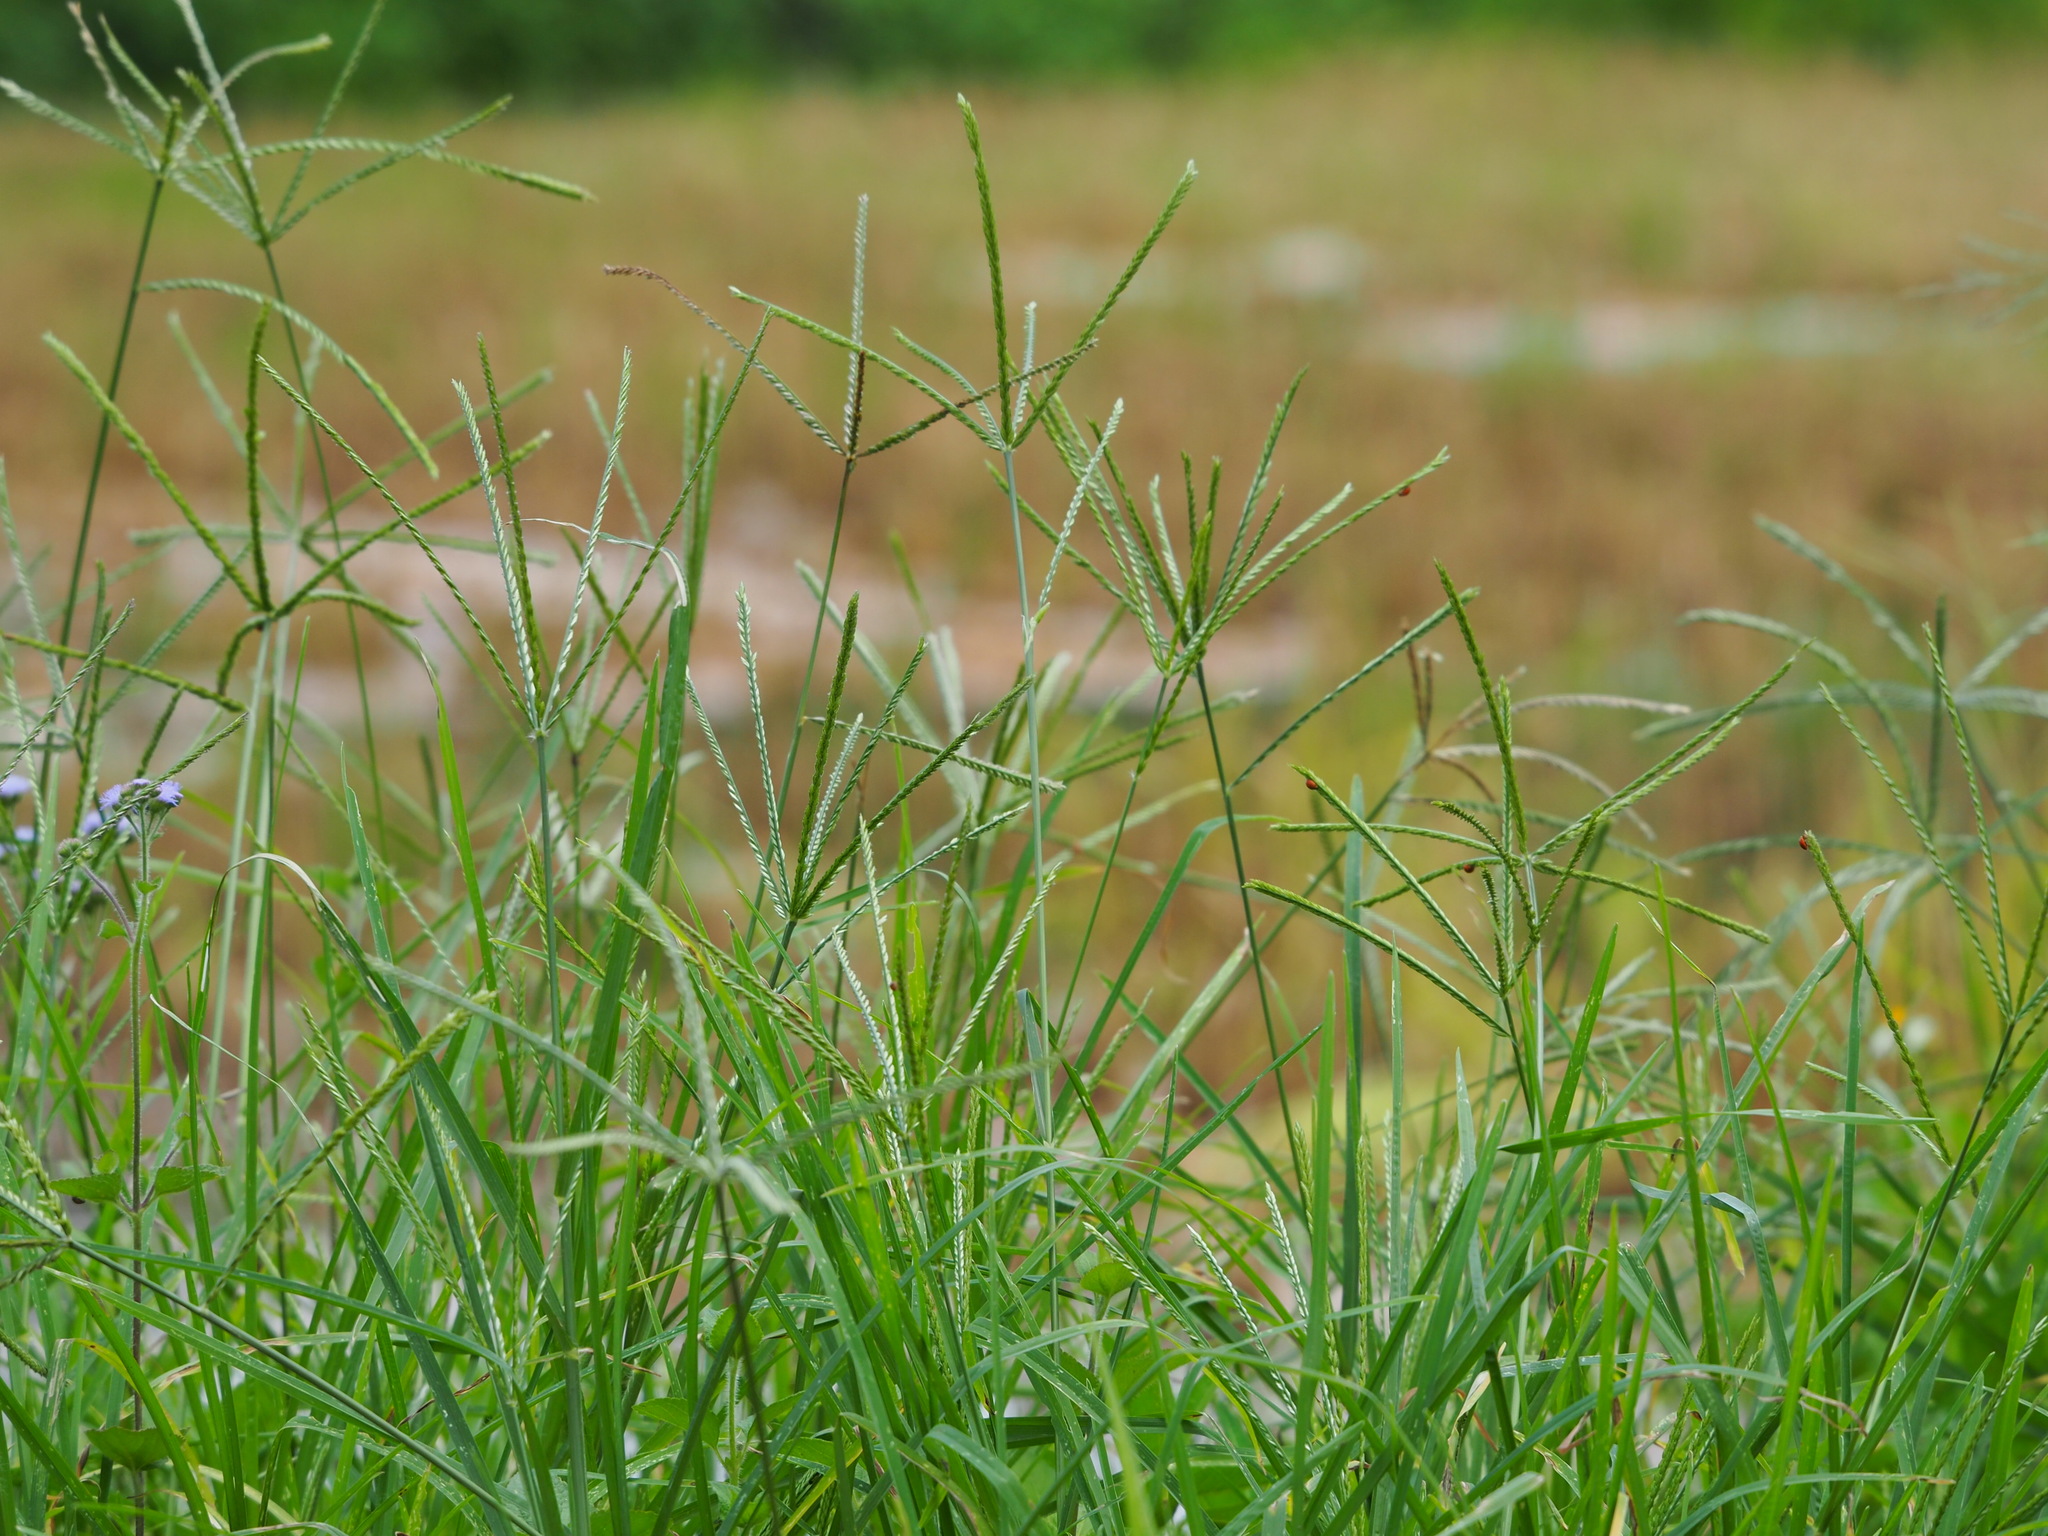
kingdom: Plantae
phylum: Tracheophyta
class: Liliopsida
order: Poales
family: Poaceae
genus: Eleusine
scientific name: Eleusine indica
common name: Yard-grass
